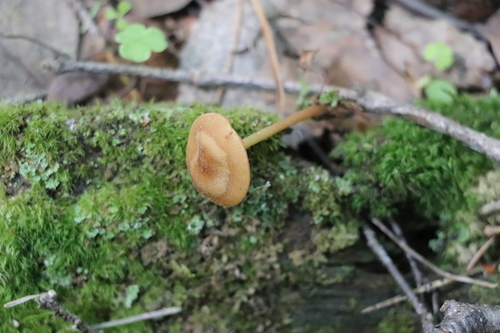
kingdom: Fungi
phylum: Basidiomycota
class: Agaricomycetes
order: Agaricales
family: Omphalotaceae
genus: Gymnopus
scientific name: Gymnopus dryophilus
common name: Penny top
